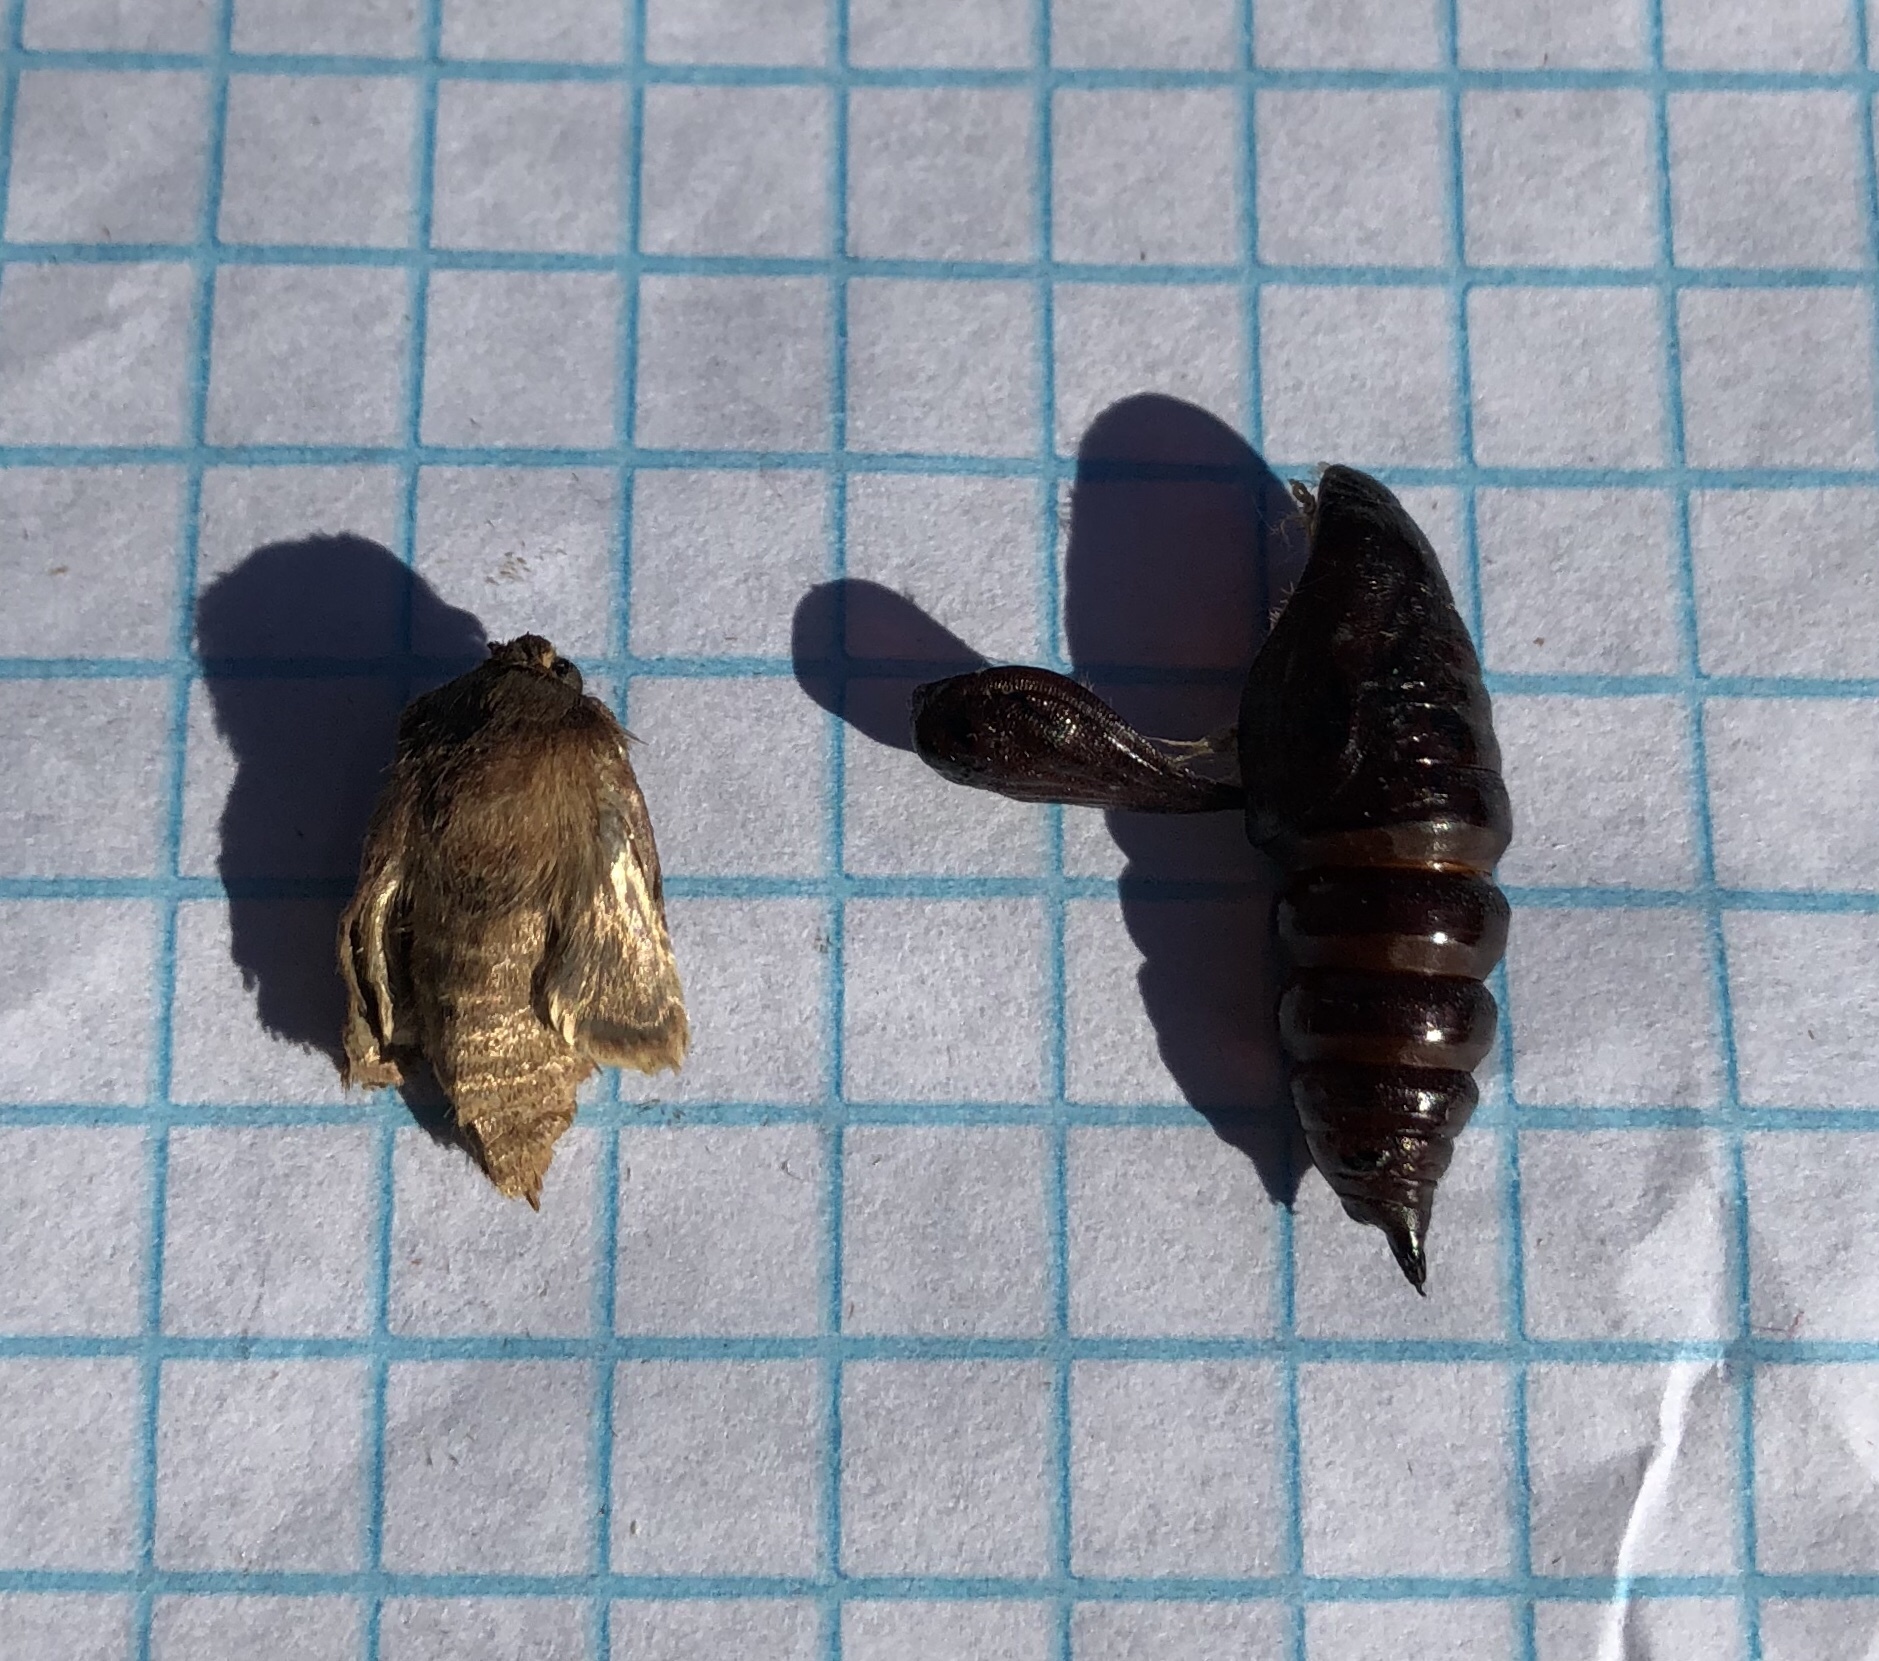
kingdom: Animalia
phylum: Arthropoda
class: Insecta
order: Lepidoptera
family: Lasiocampidae
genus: Malacosoma
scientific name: Malacosoma americana
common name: Eastern tent caterpillar moth
